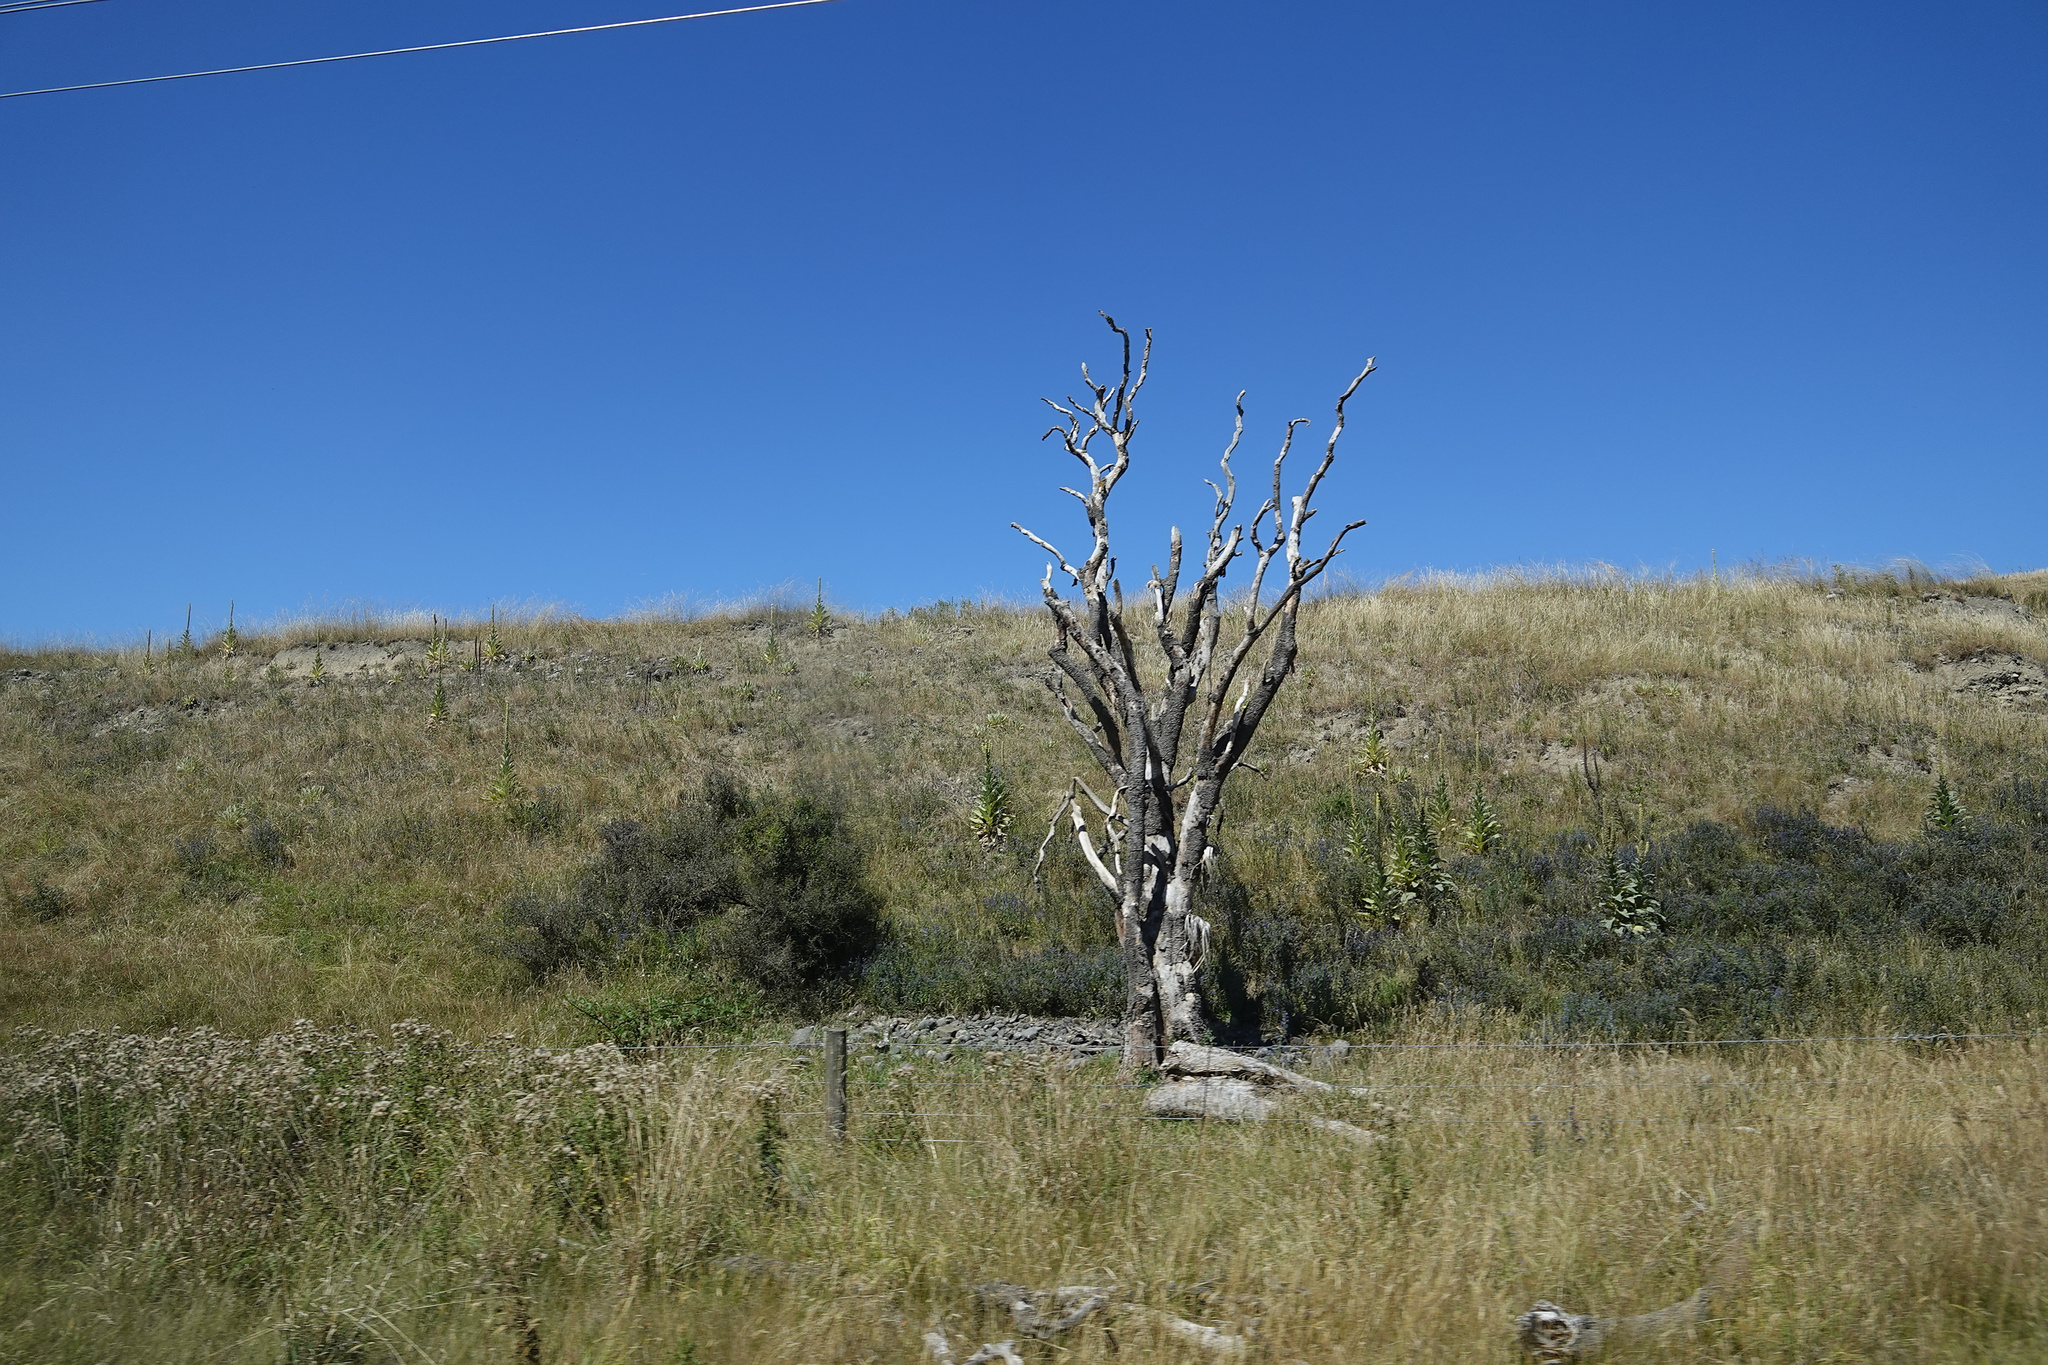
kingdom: Plantae
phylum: Tracheophyta
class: Liliopsida
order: Asparagales
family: Asparagaceae
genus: Cordyline
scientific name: Cordyline australis
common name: Cabbage-palm
